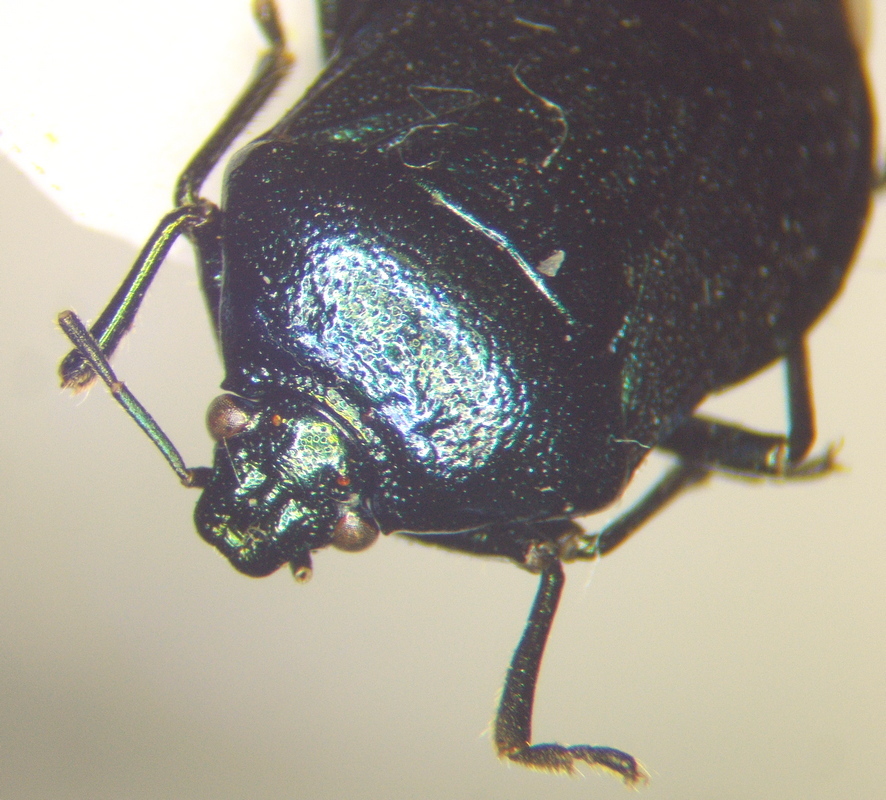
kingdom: Animalia
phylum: Arthropoda
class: Insecta
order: Hemiptera
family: Pentatomidae
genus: Zicrona
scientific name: Zicrona caerulea
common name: Blue shieldbug
